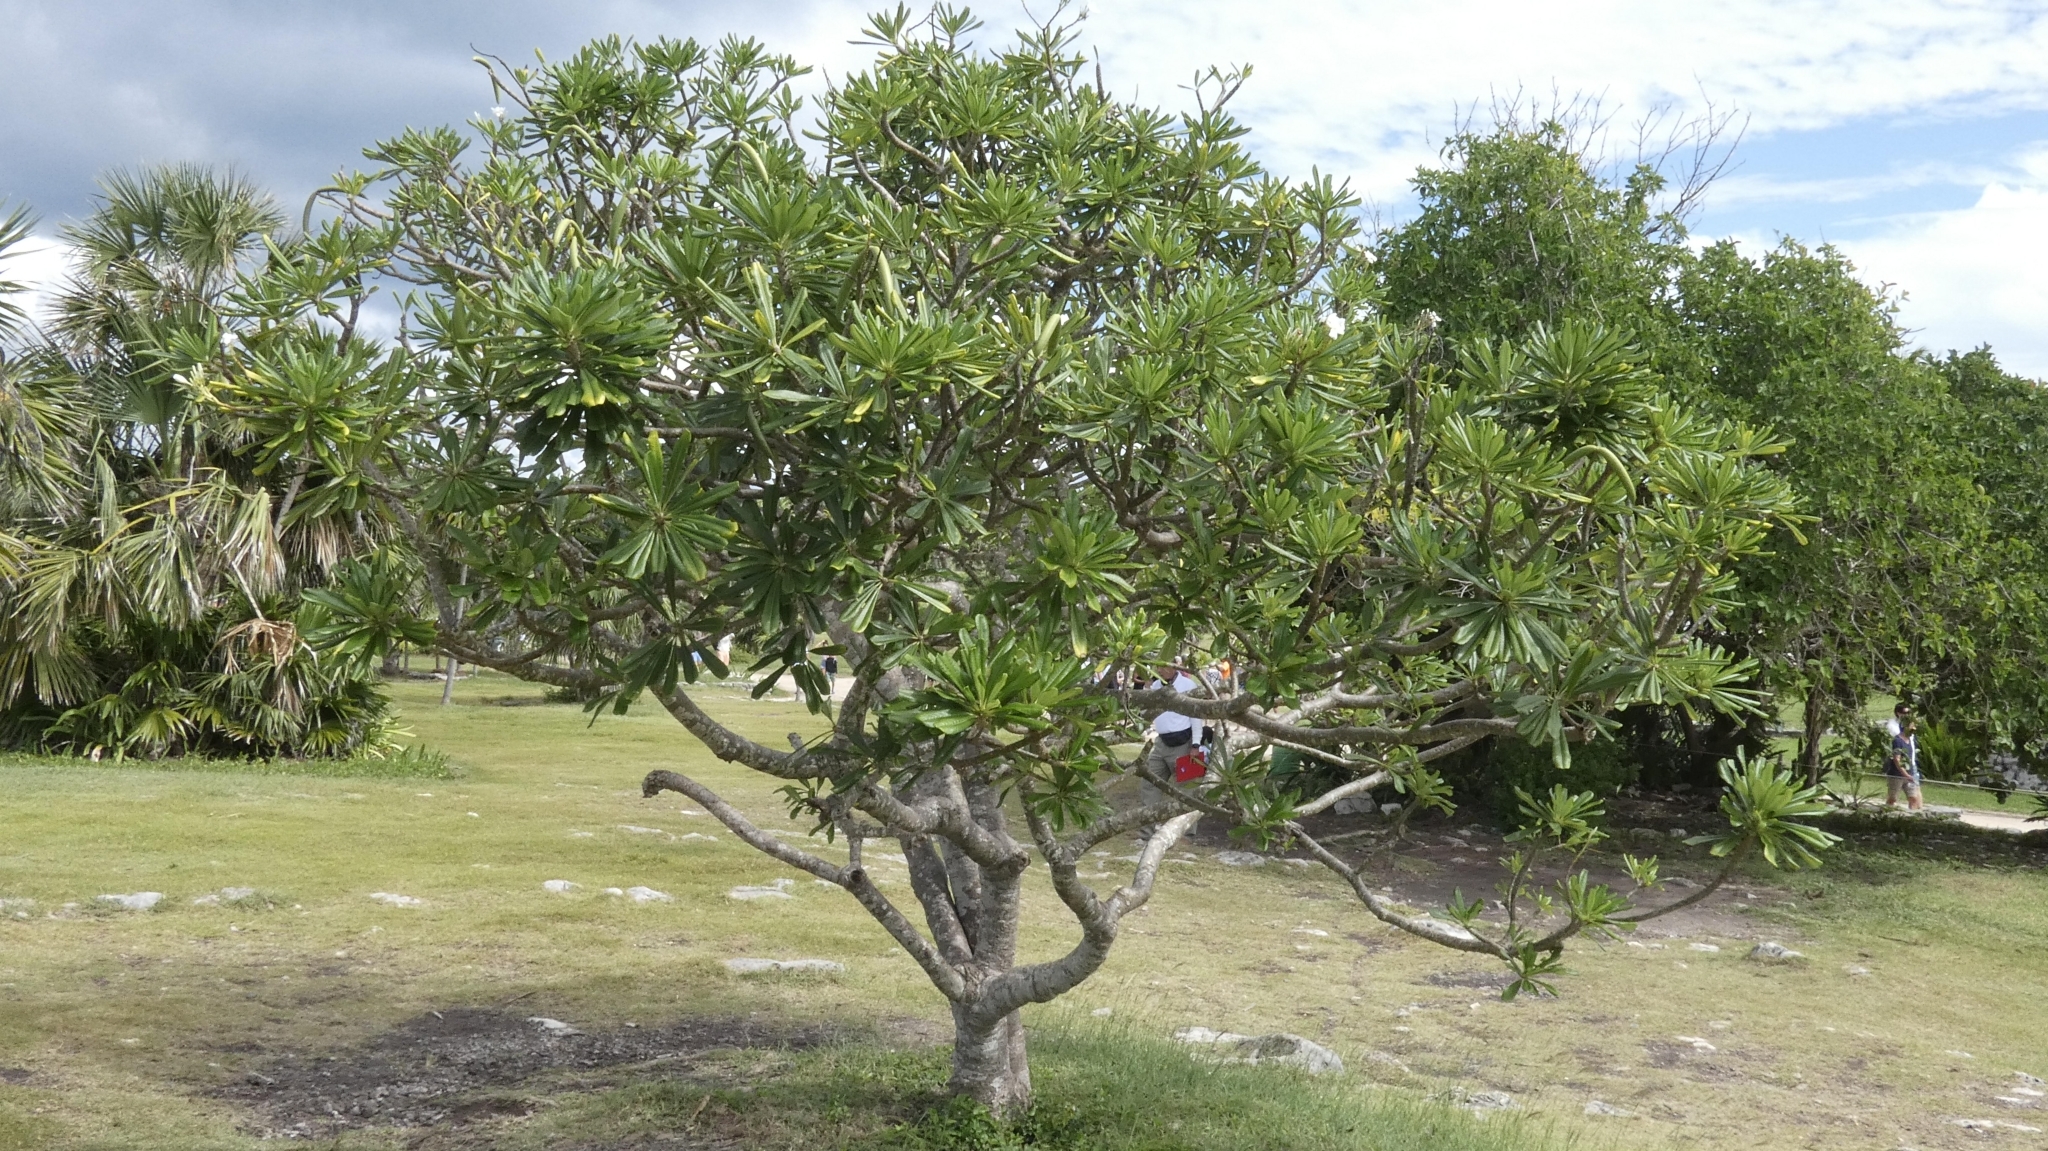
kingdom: Plantae
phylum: Tracheophyta
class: Magnoliopsida
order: Gentianales
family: Apocynaceae
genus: Plumeria
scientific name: Plumeria obtusa
